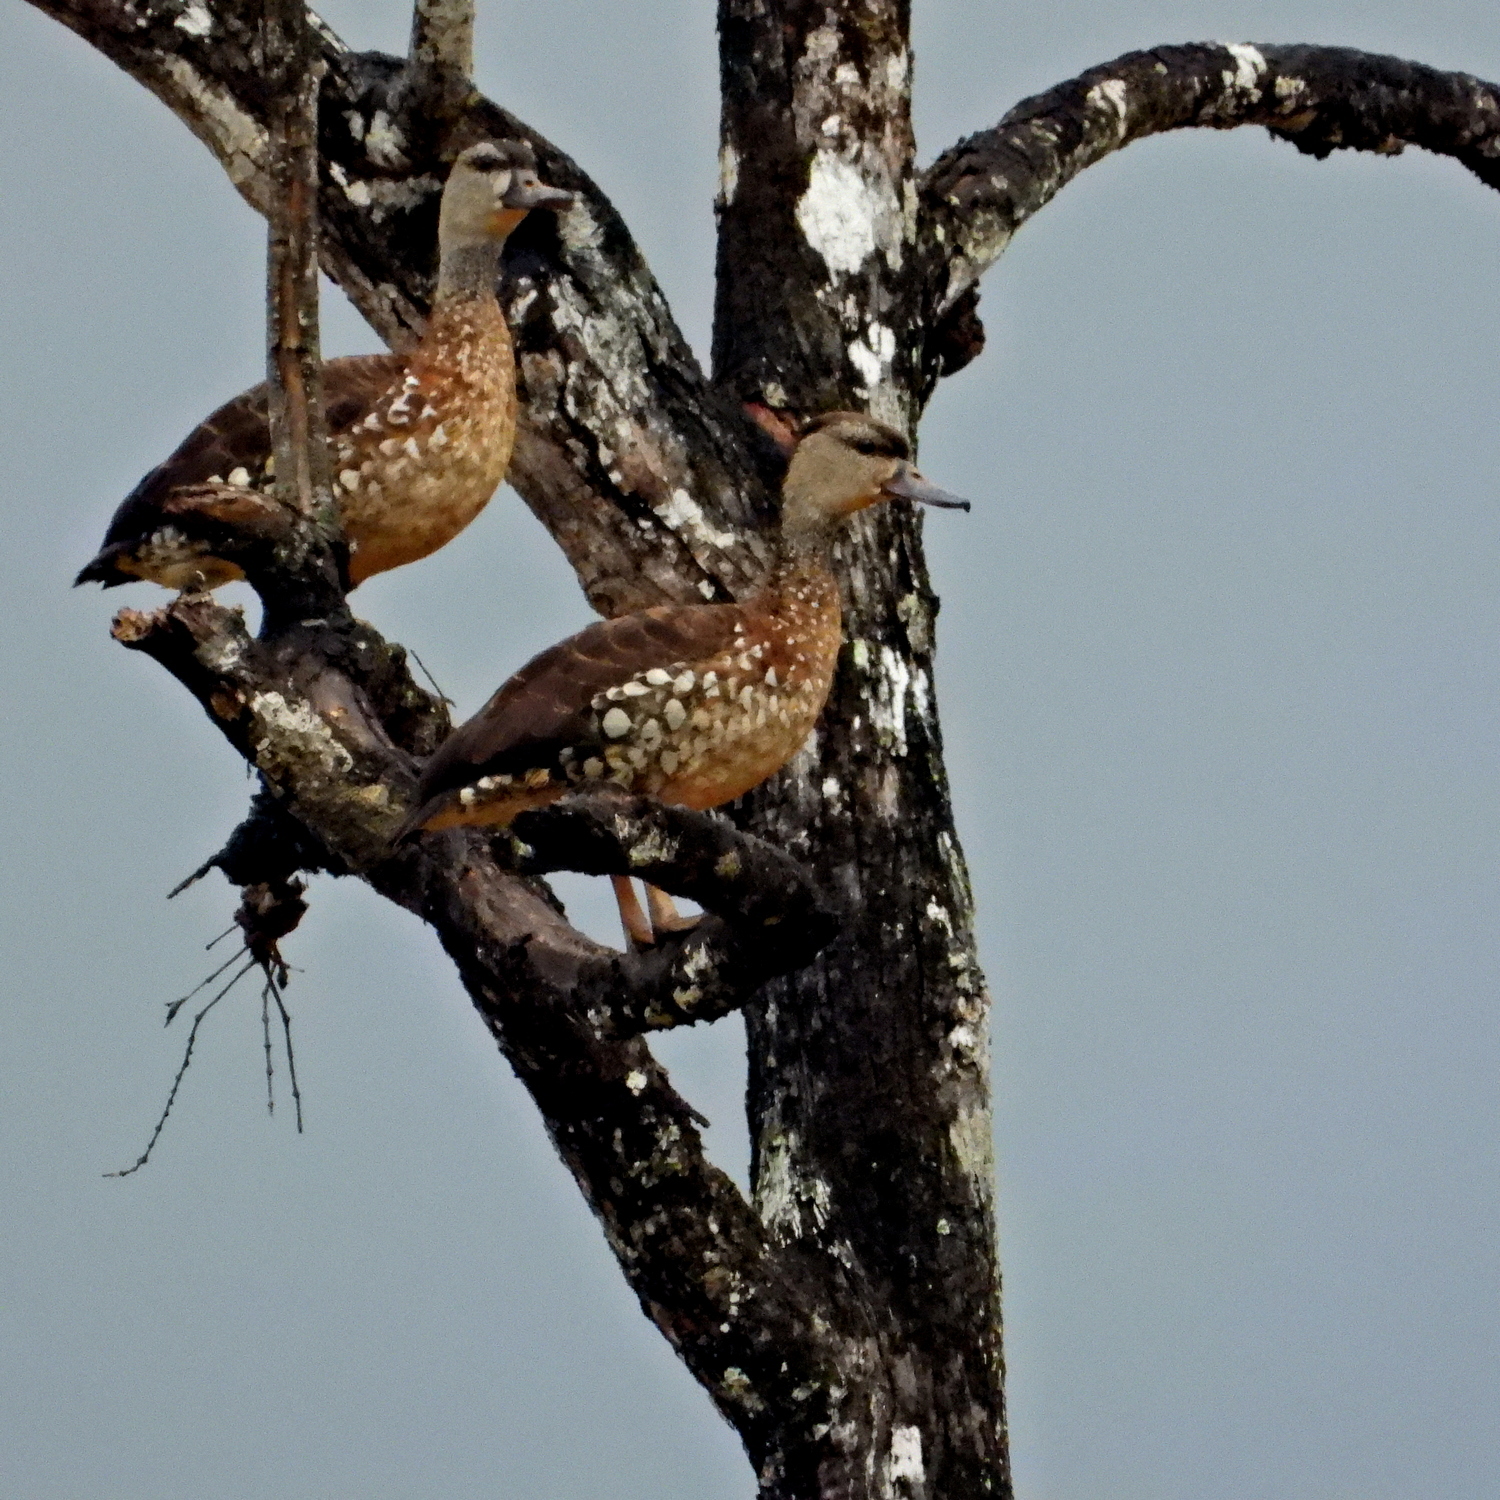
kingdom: Animalia
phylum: Chordata
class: Aves
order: Anseriformes
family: Anatidae
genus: Dendrocygna
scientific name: Dendrocygna guttata
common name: Spotted whistling-duck
